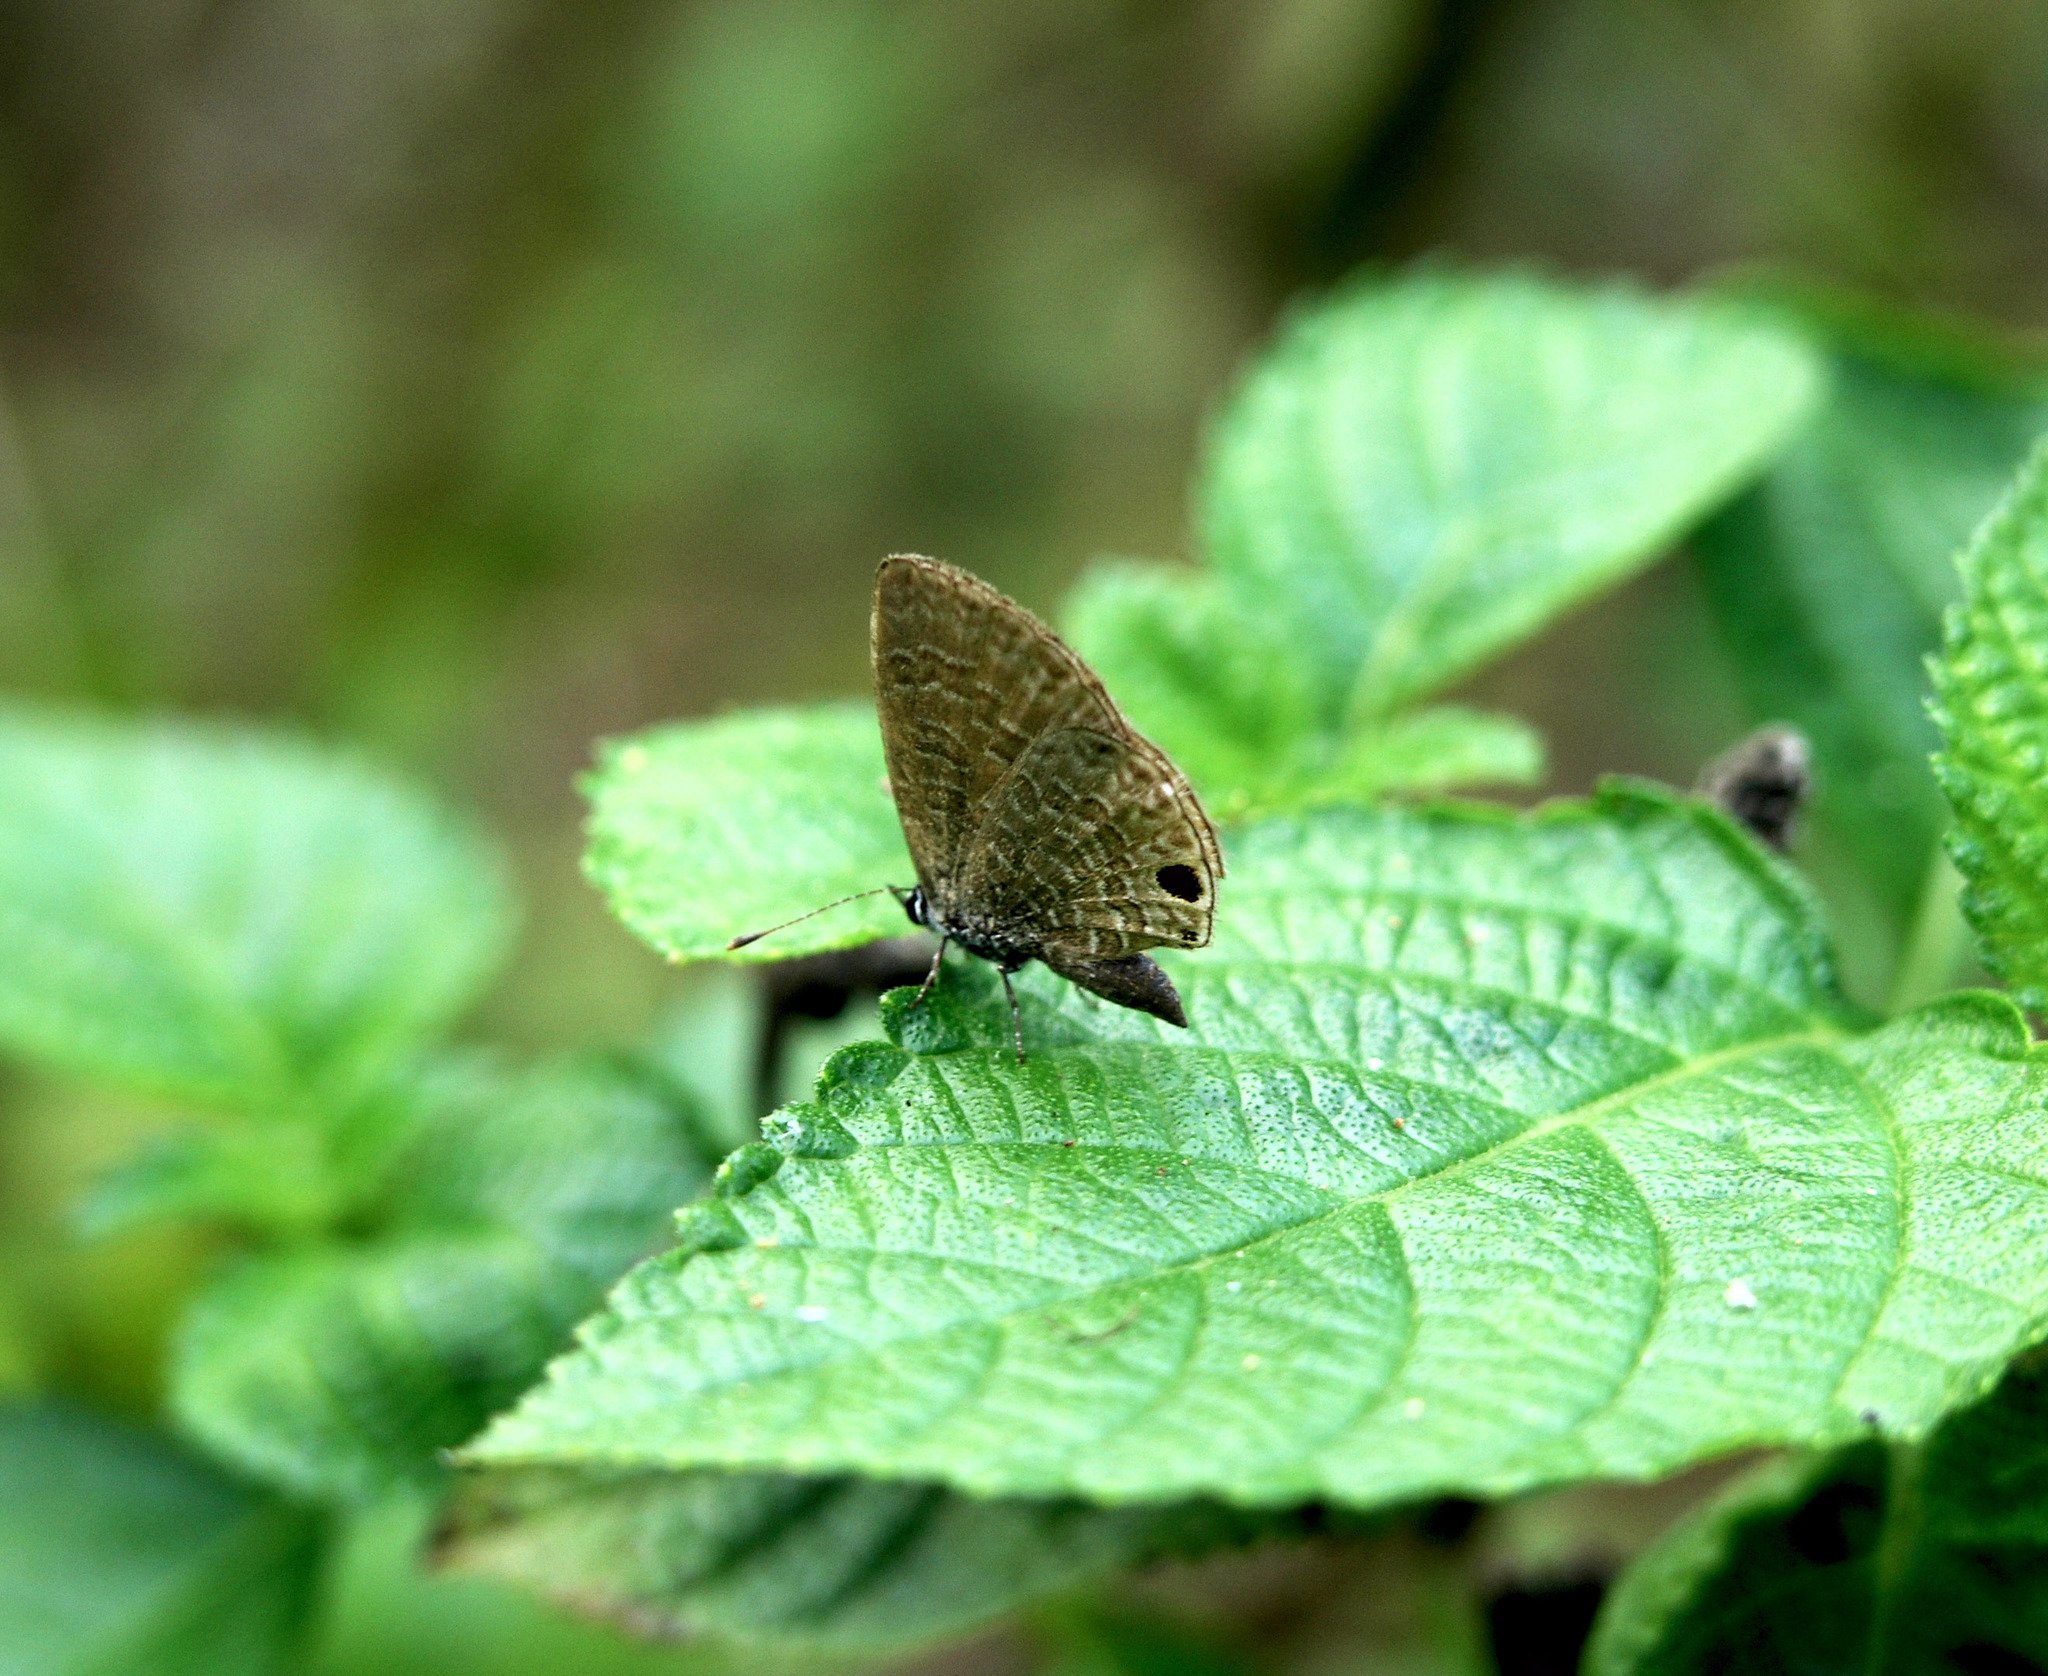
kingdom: Animalia
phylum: Arthropoda
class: Insecta
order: Lepidoptera
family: Lycaenidae
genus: Prosotas
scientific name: Prosotas dubiosa
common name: Tailless lineblue
